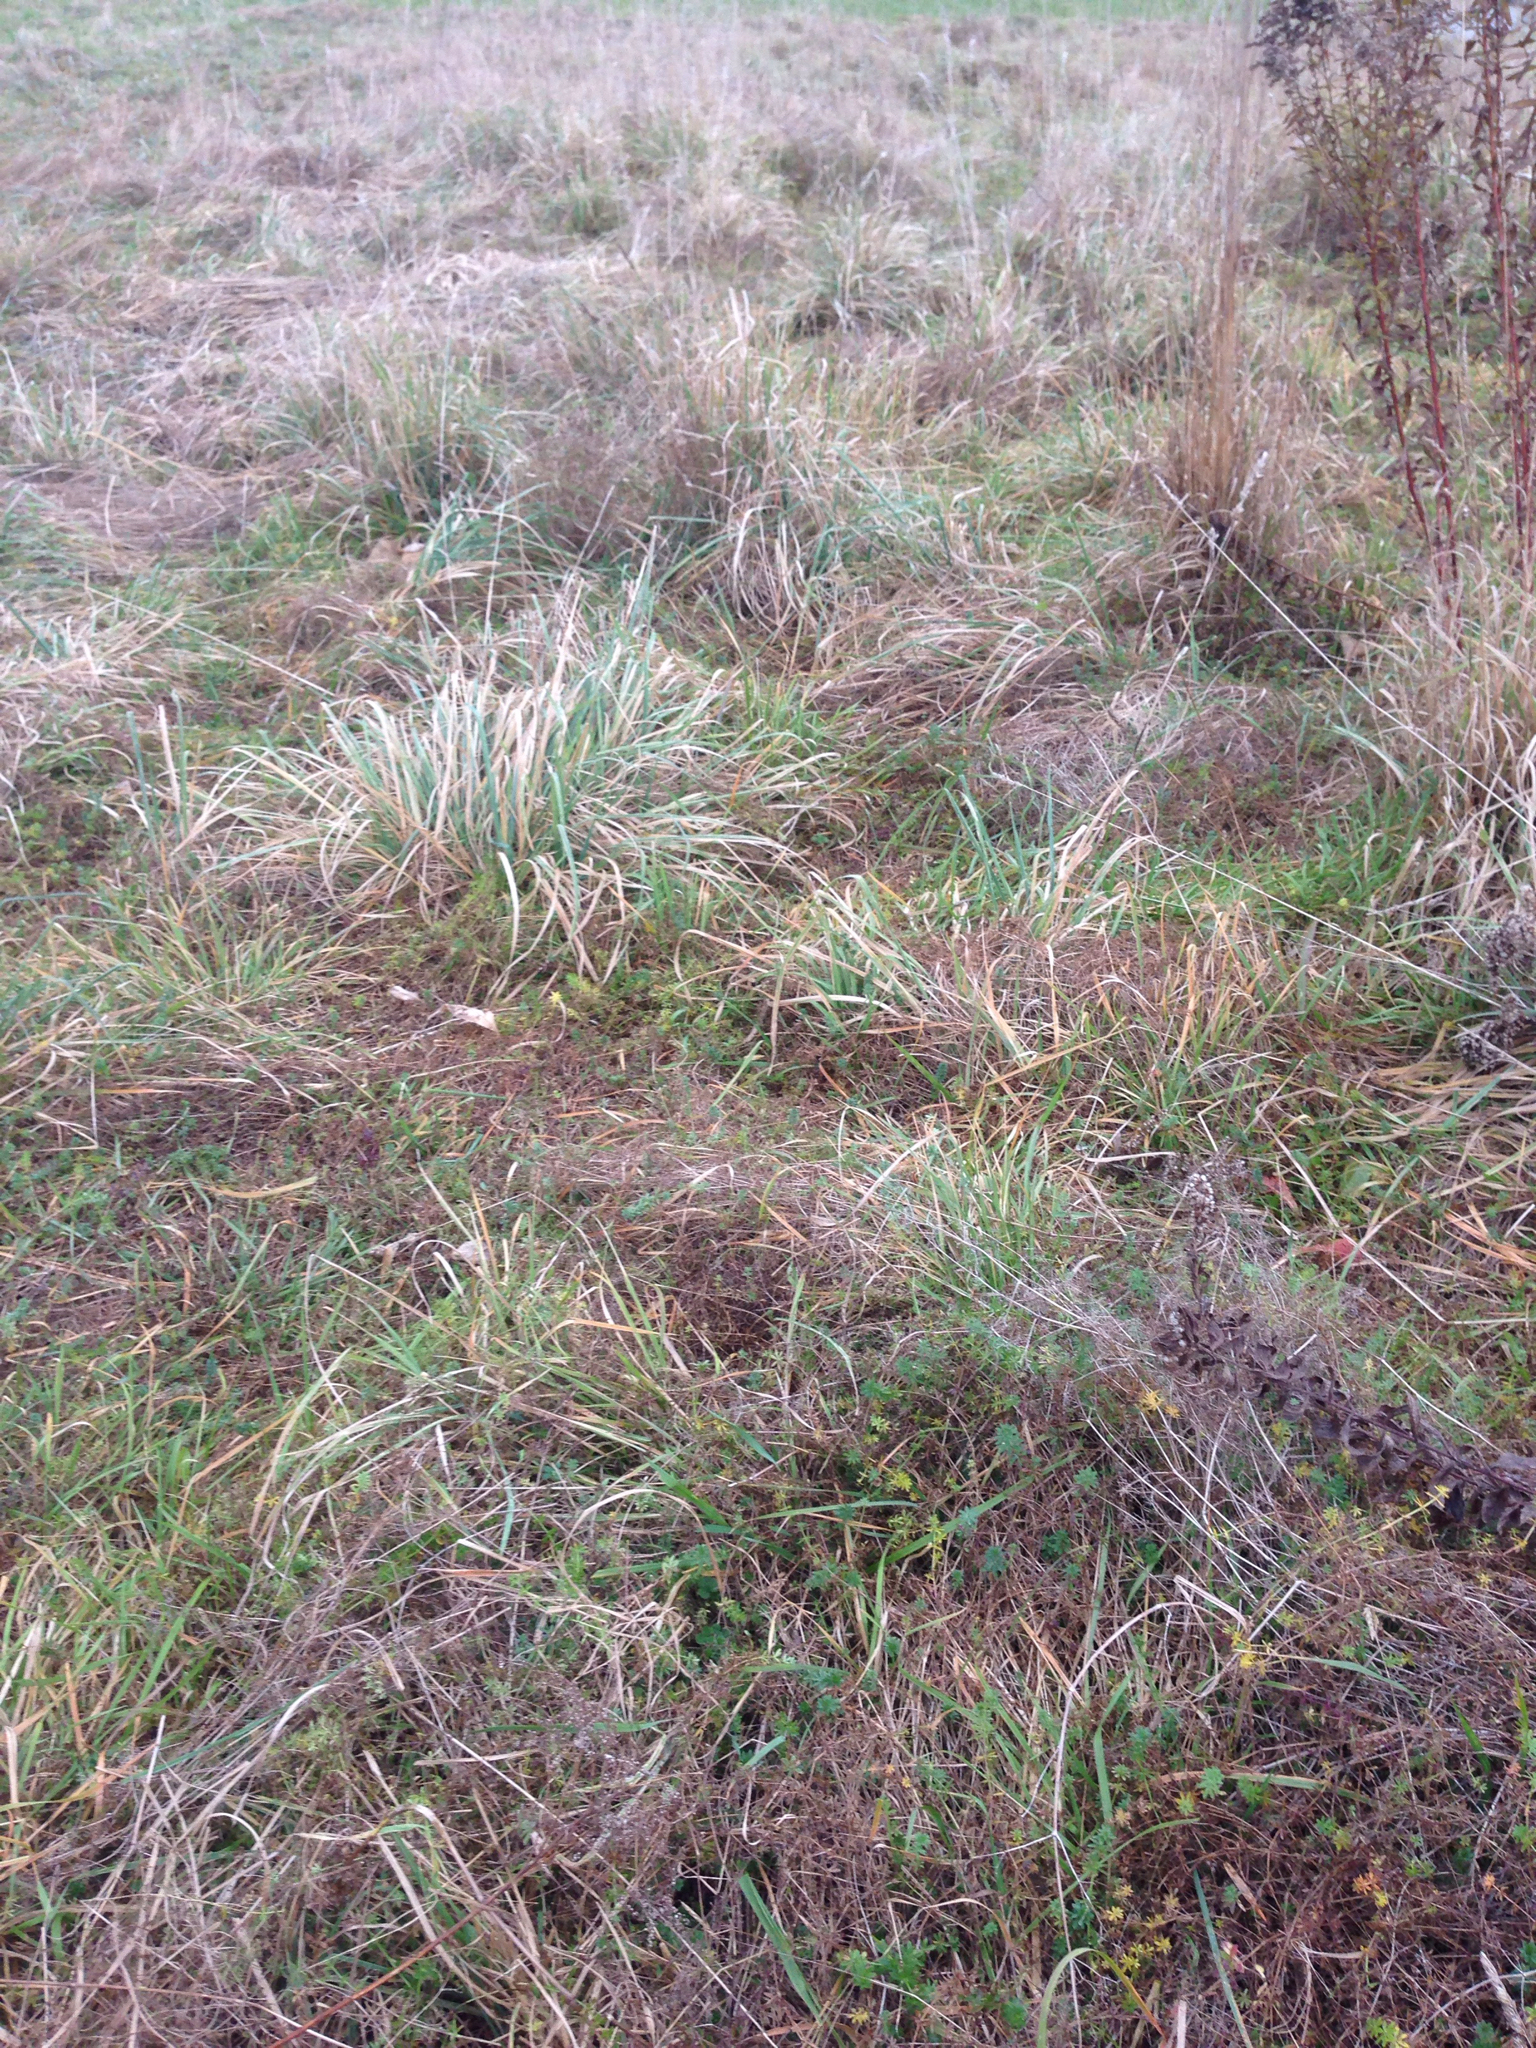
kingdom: Plantae
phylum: Tracheophyta
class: Liliopsida
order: Poales
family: Poaceae
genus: Dactylis
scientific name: Dactylis glomerata
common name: Orchardgrass
